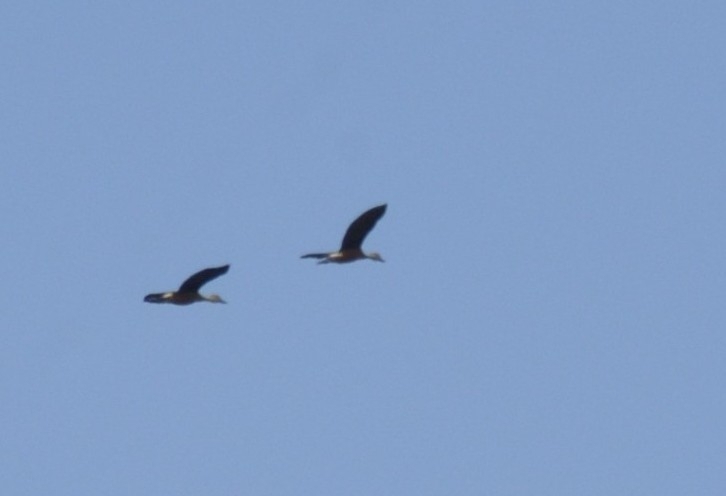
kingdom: Animalia
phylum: Chordata
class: Aves
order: Anseriformes
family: Anatidae
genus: Dendrocygna
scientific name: Dendrocygna javanica
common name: Lesser whistling-duck
